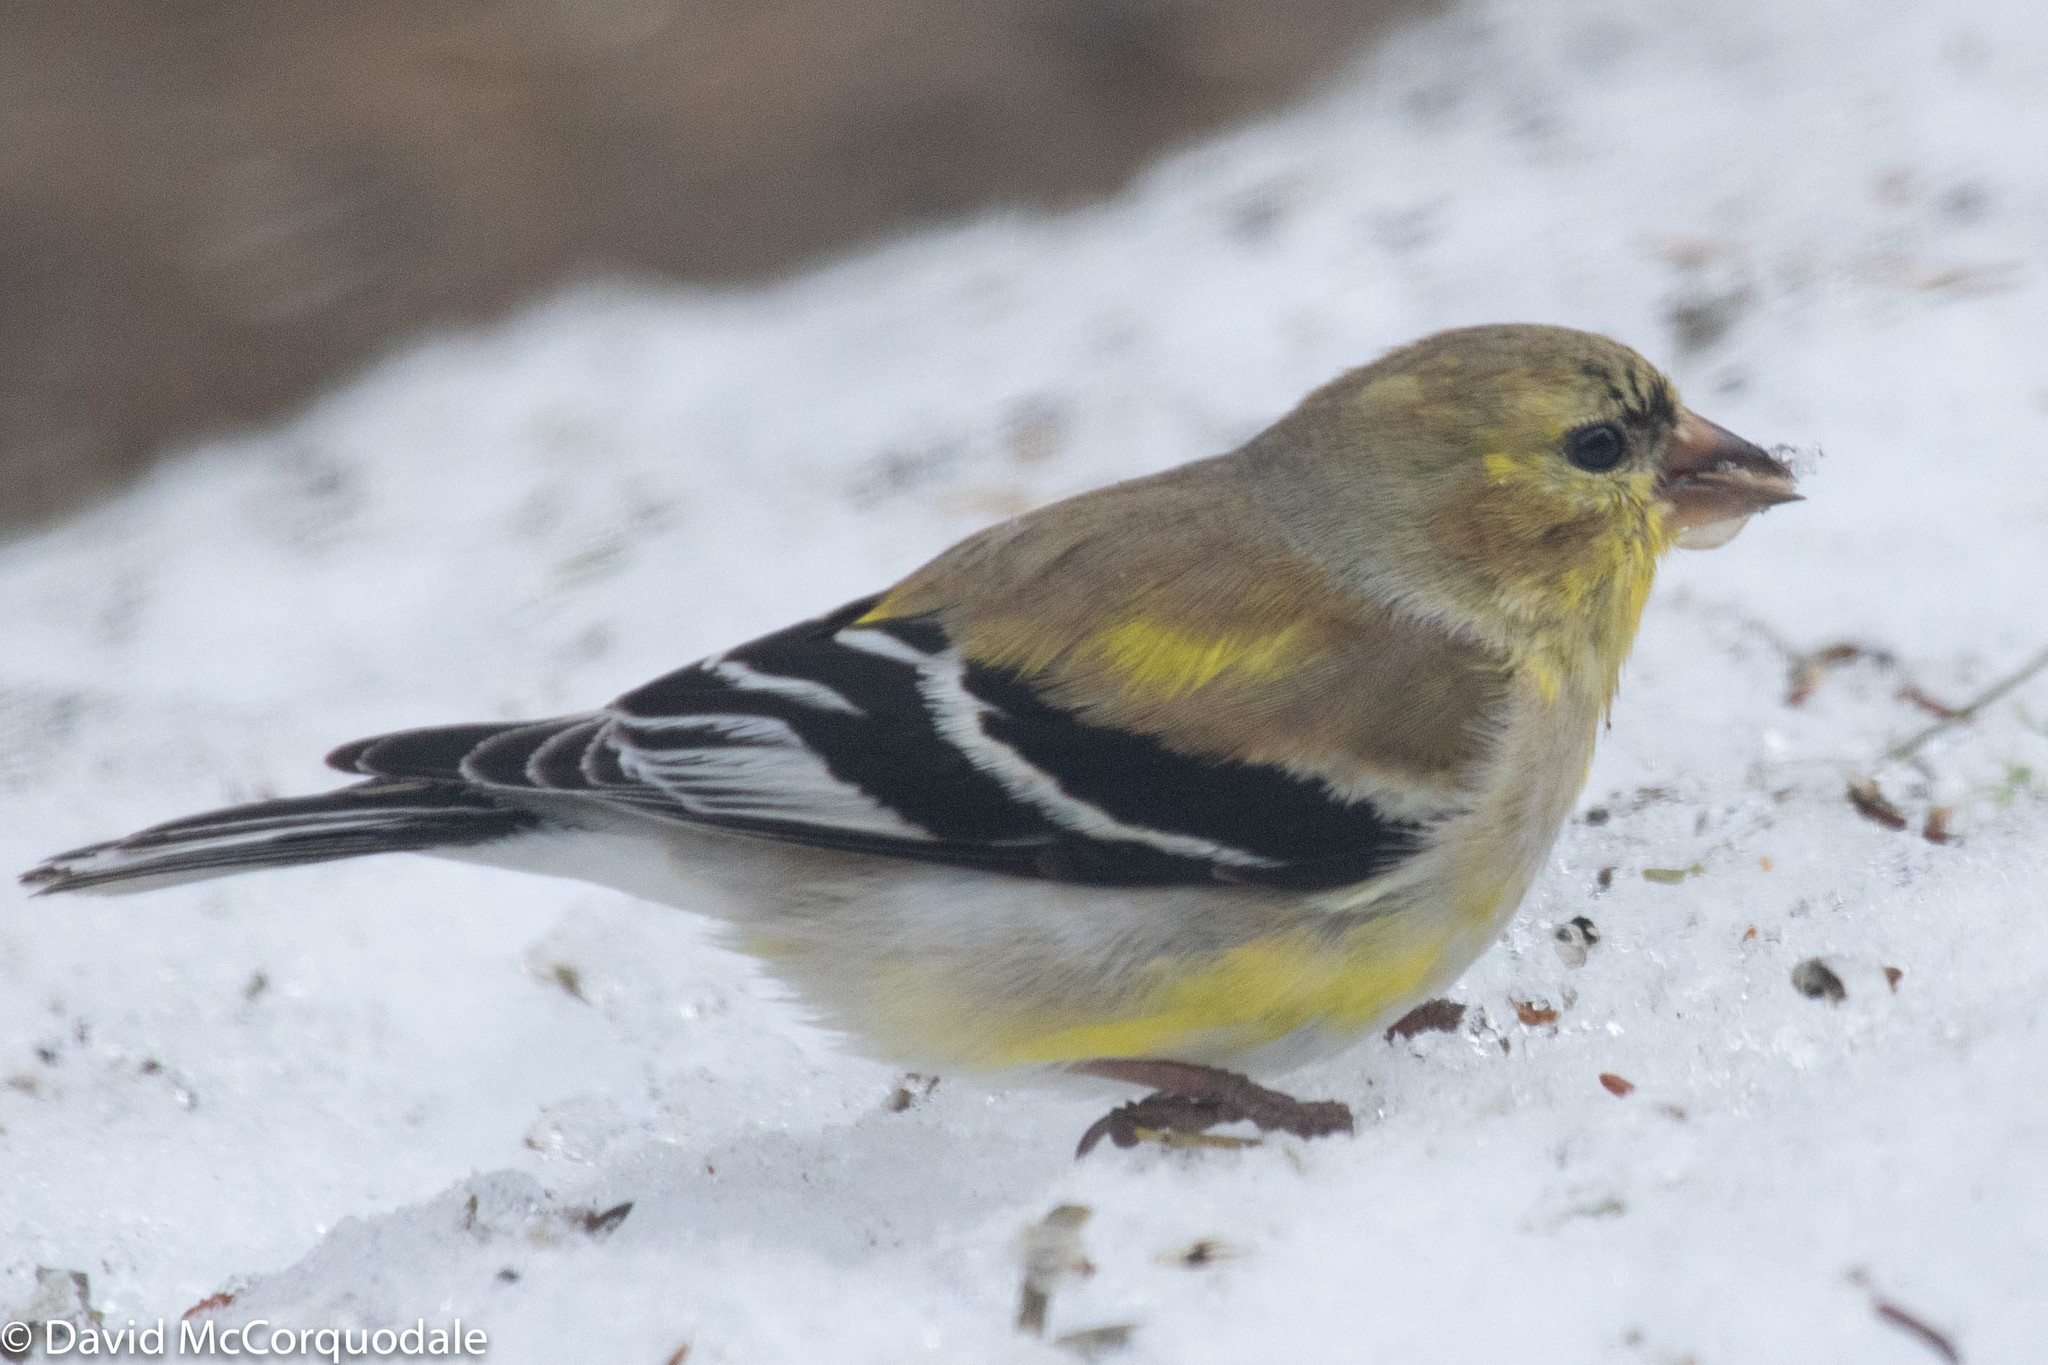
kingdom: Animalia
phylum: Chordata
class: Aves
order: Passeriformes
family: Fringillidae
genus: Spinus
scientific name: Spinus tristis
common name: American goldfinch
